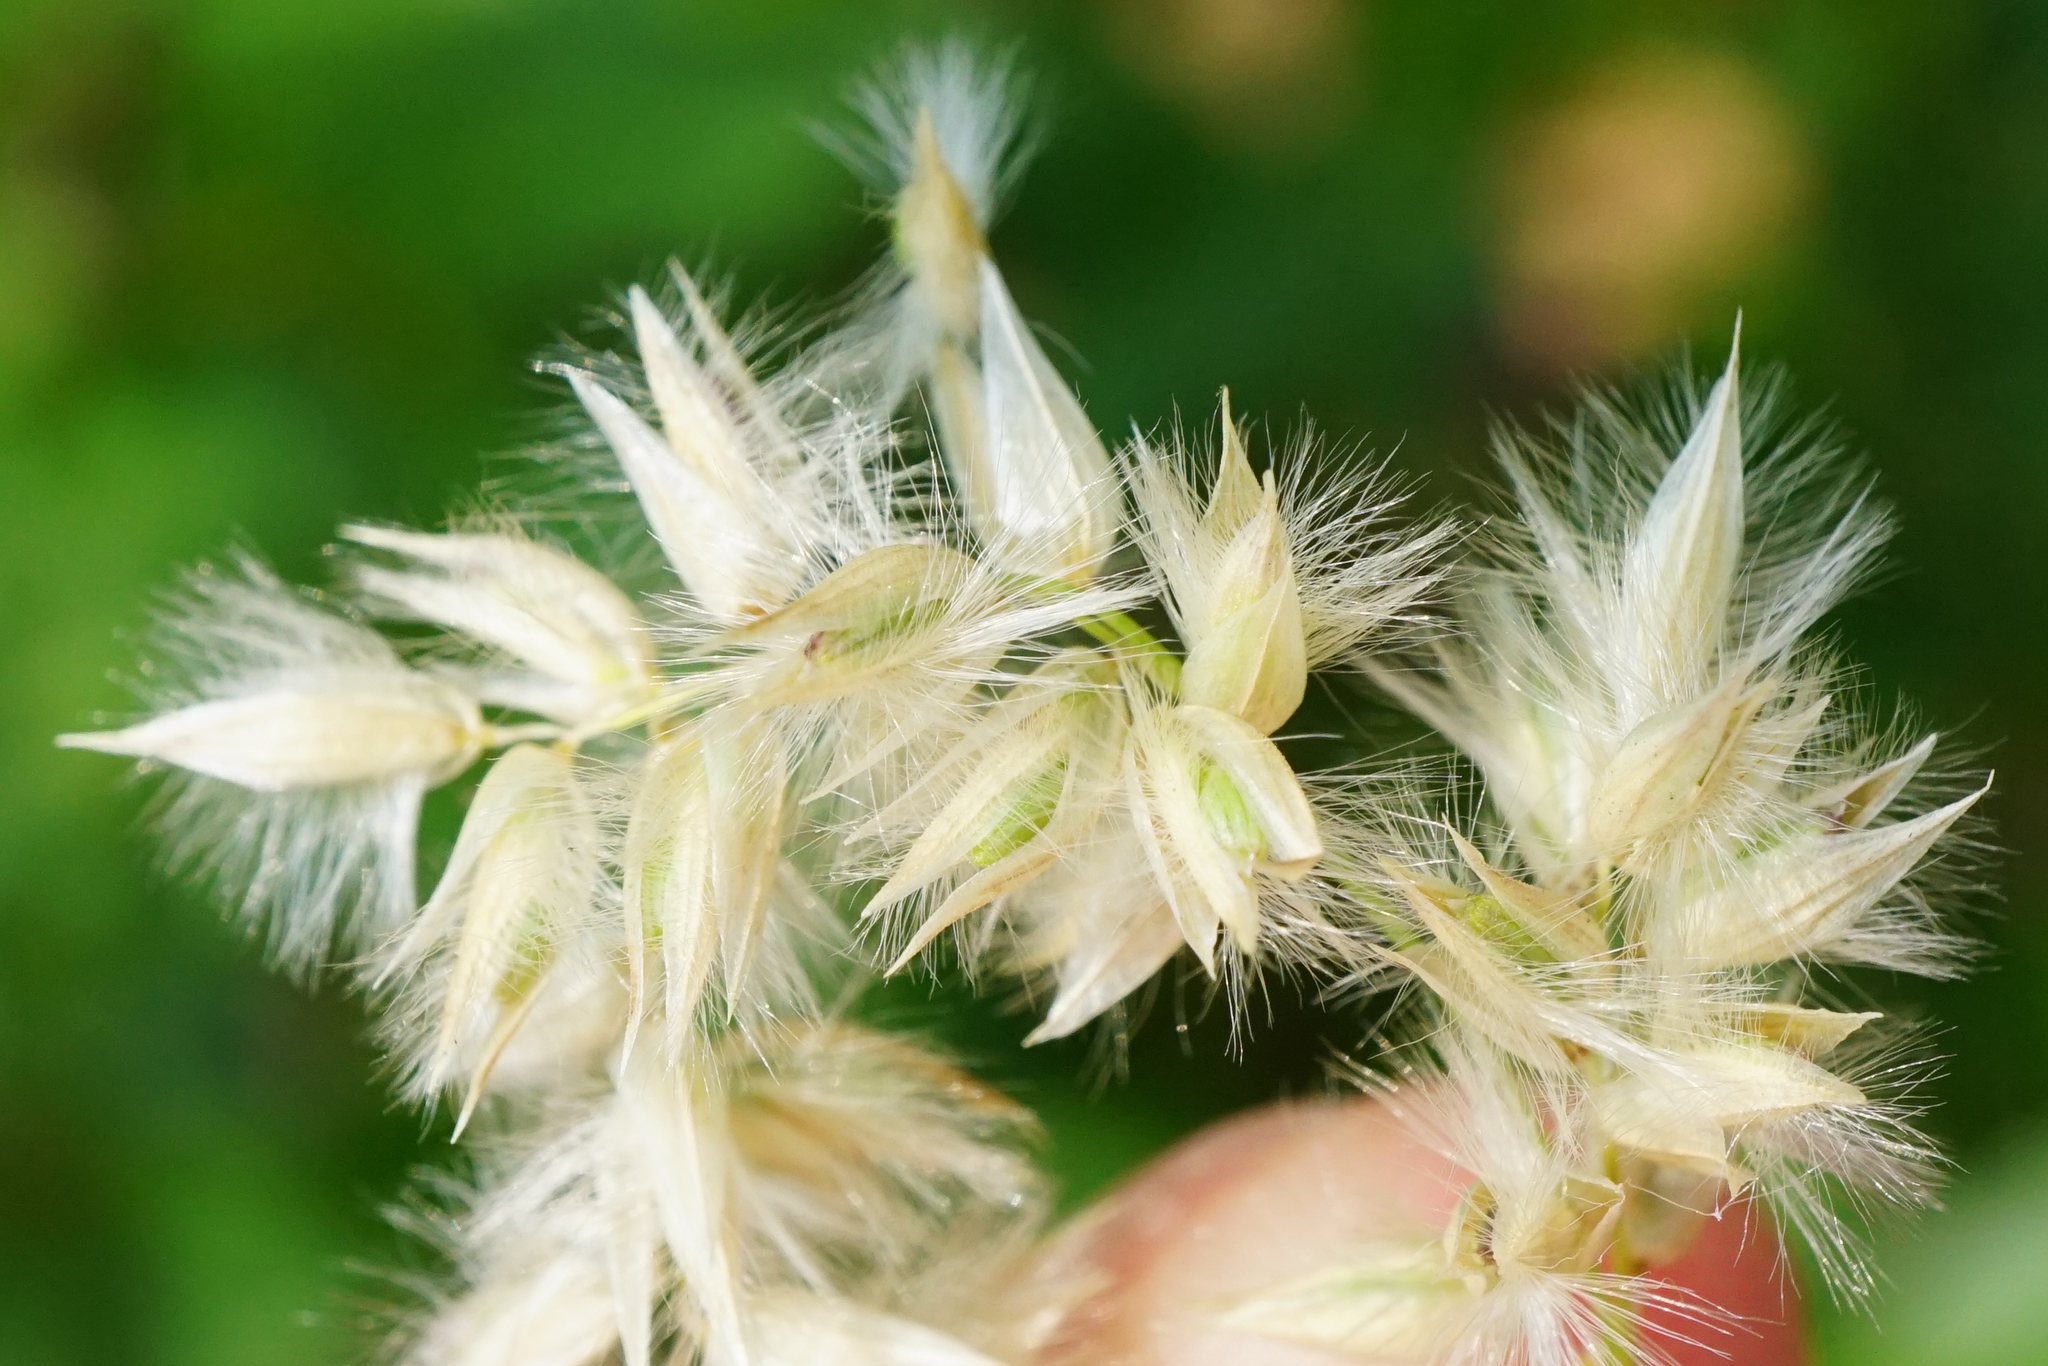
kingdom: Plantae
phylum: Tracheophyta
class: Liliopsida
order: Poales
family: Poaceae
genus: Melica
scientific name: Melica ciliata
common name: Hairy melicgrass
